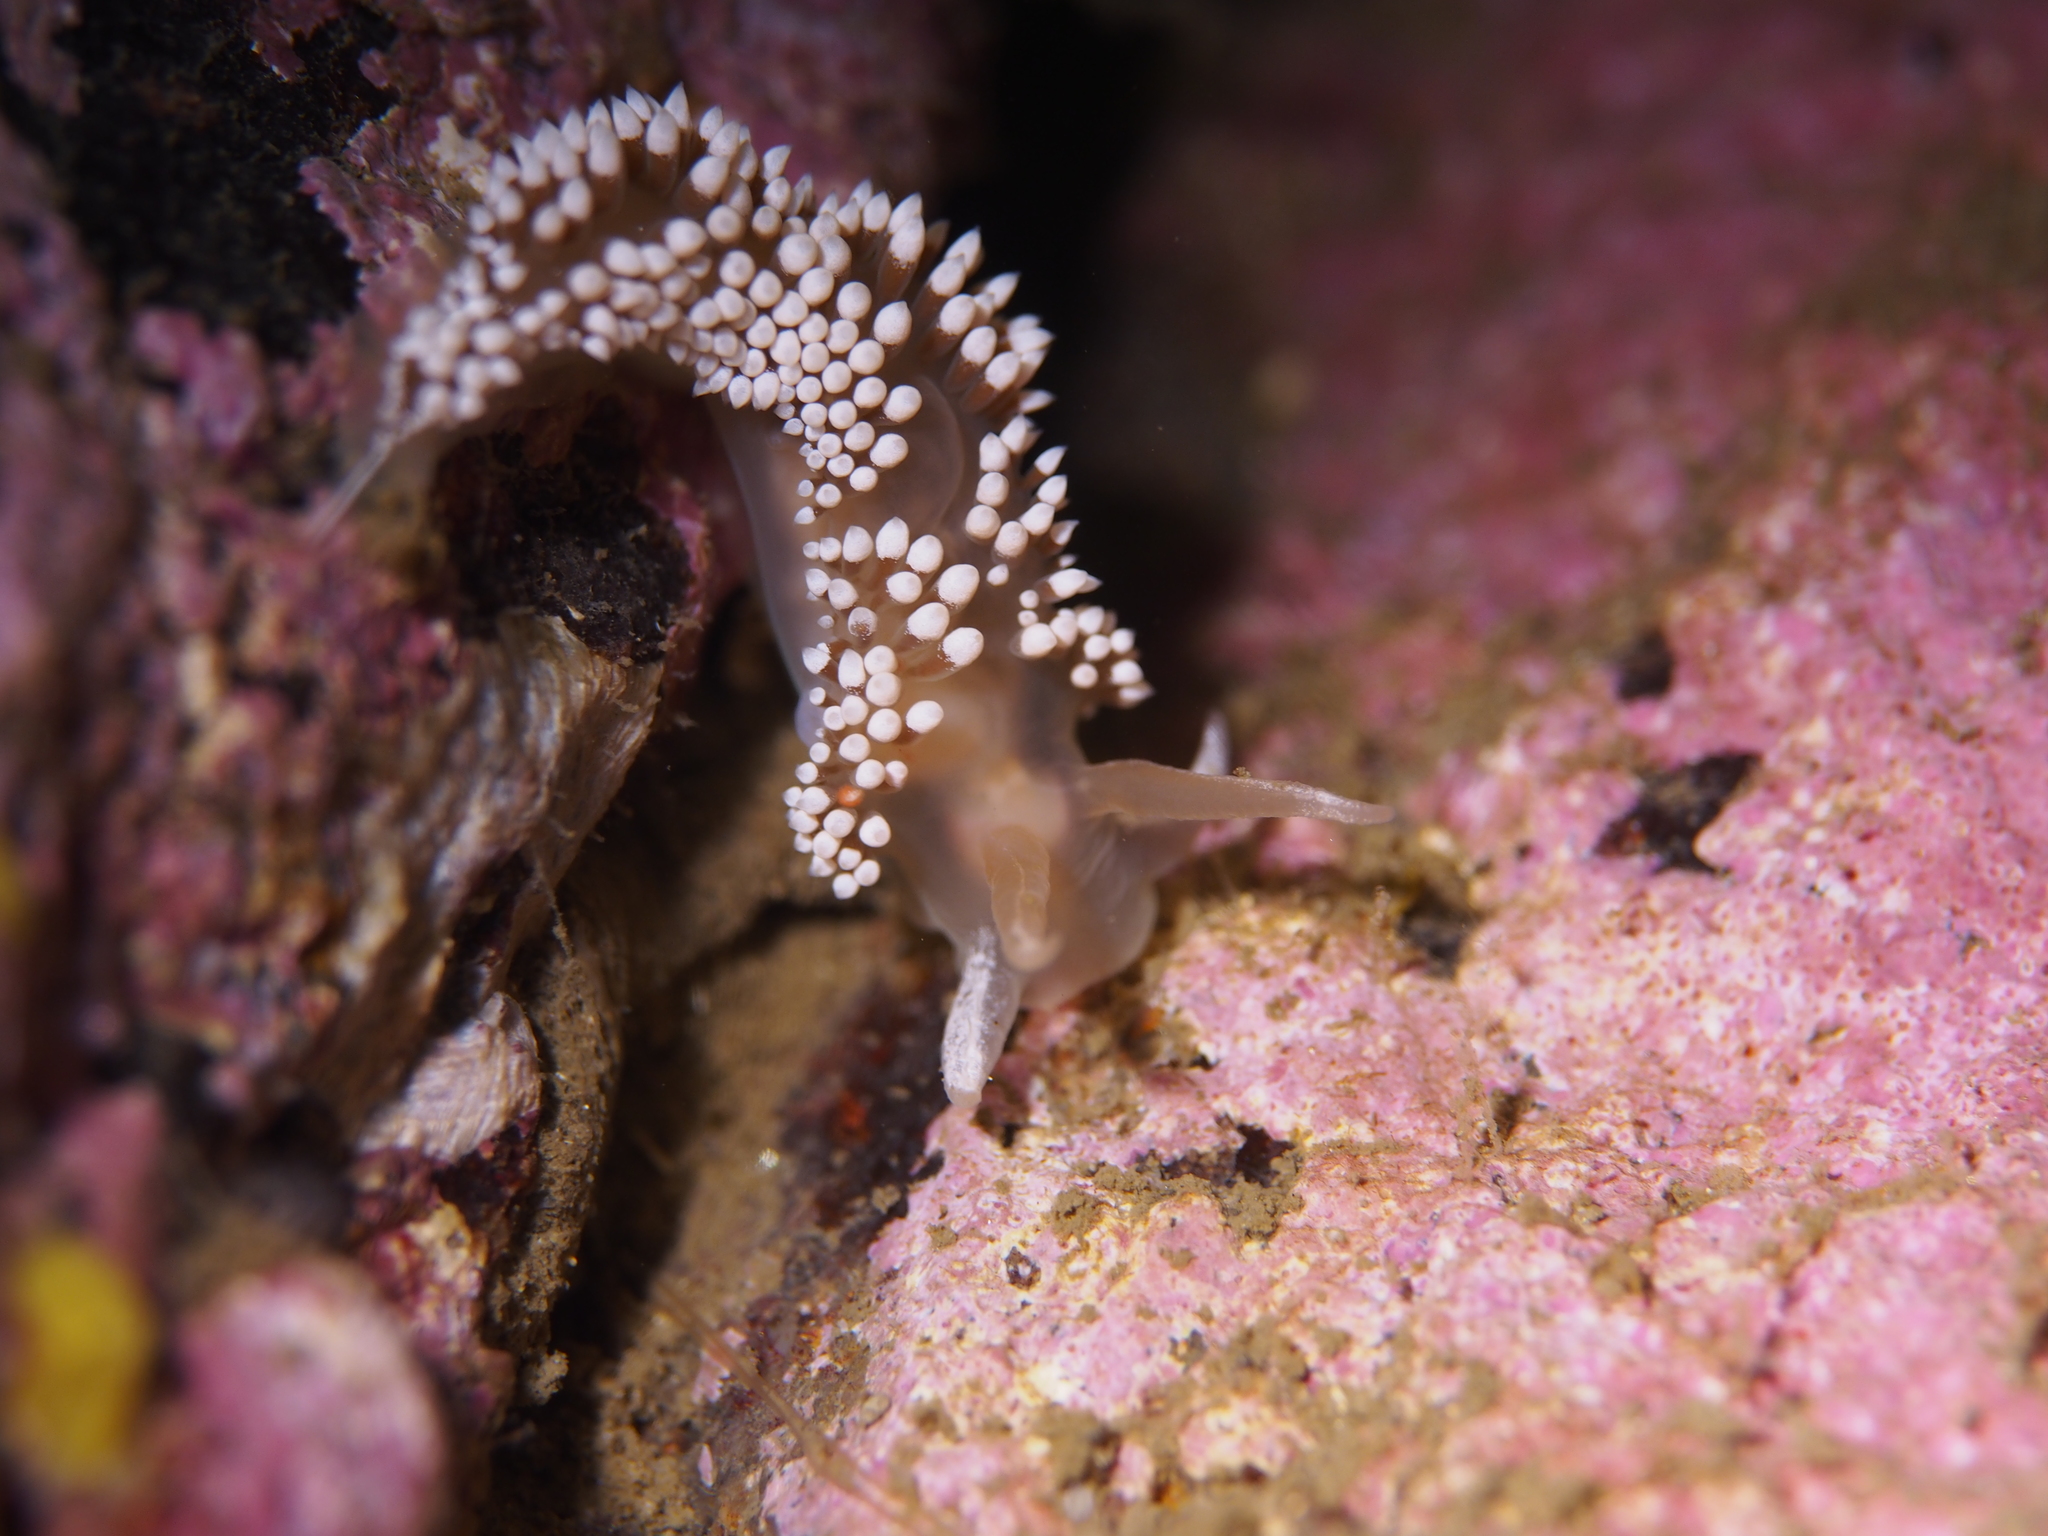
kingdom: Animalia
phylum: Mollusca
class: Gastropoda
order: Nudibranchia
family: Coryphellidae
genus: Coryphella
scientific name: Coryphella verrucosa
